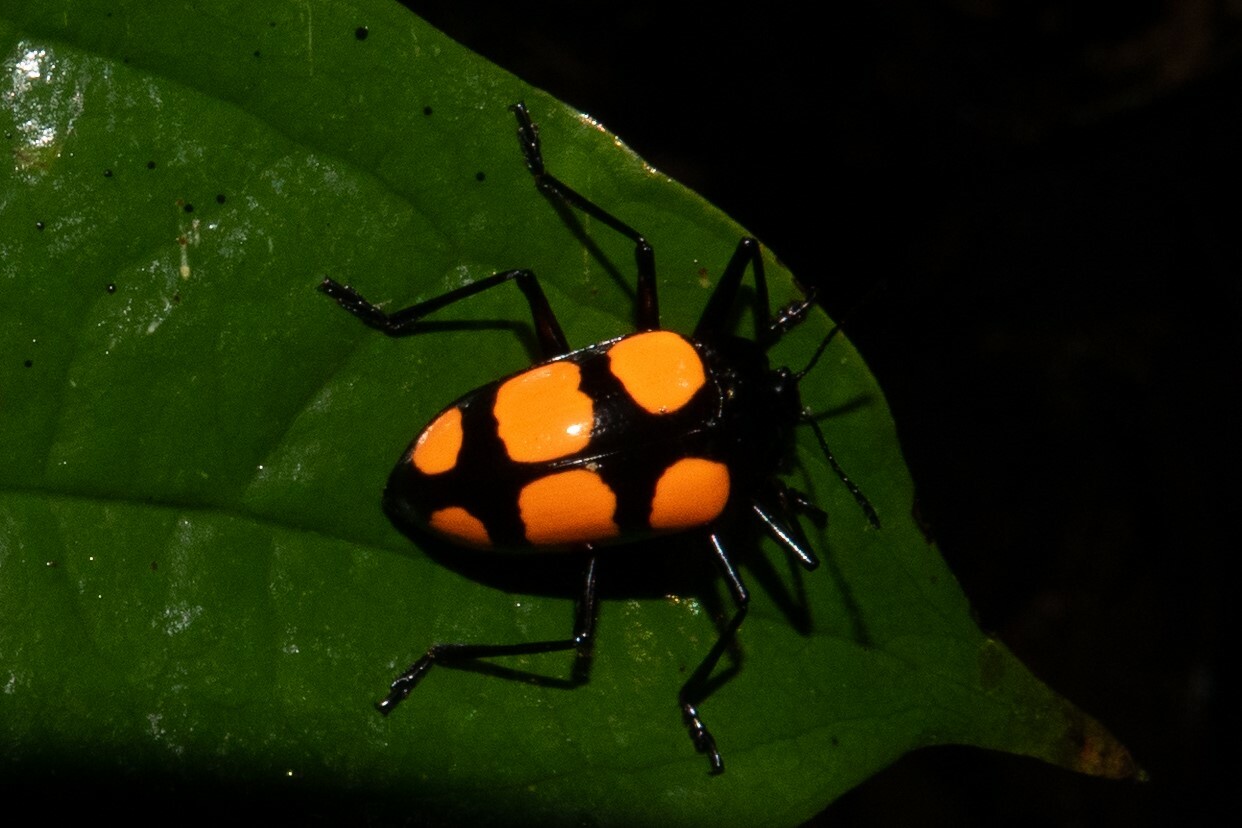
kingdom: Animalia
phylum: Arthropoda
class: Insecta
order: Coleoptera
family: Erotylidae
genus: Scaphidomorphus
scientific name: Scaphidomorphus bosci
